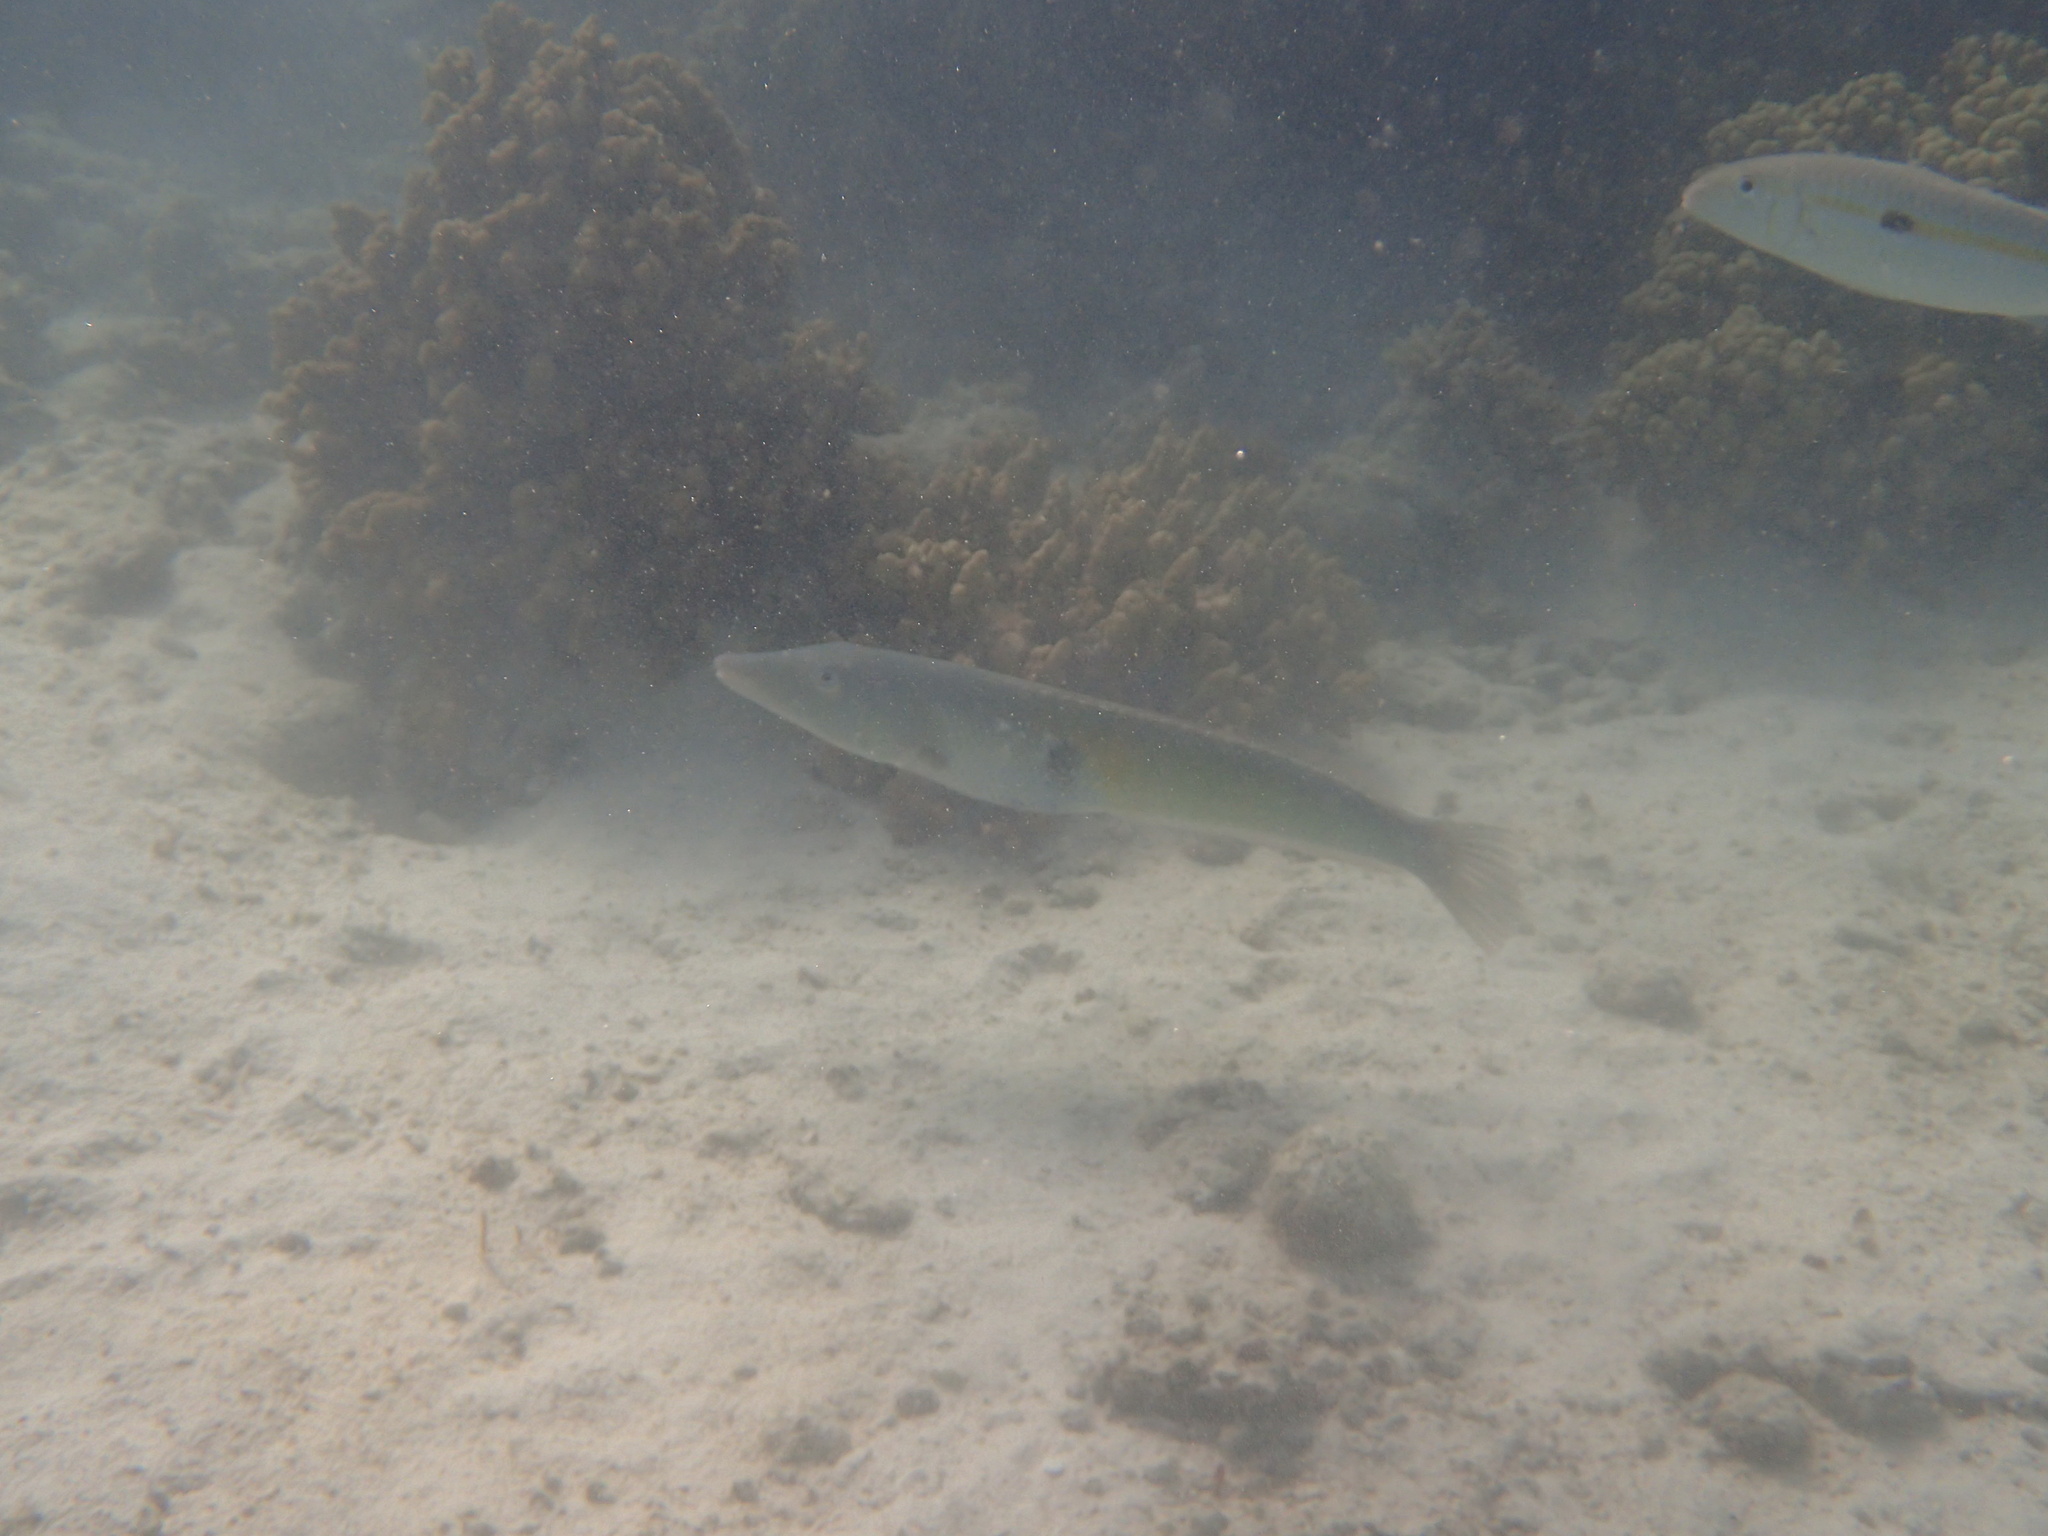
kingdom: Animalia
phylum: Chordata
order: Perciformes
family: Labridae
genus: Cheilio
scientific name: Cheilio inermis
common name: Cigar wrasse
